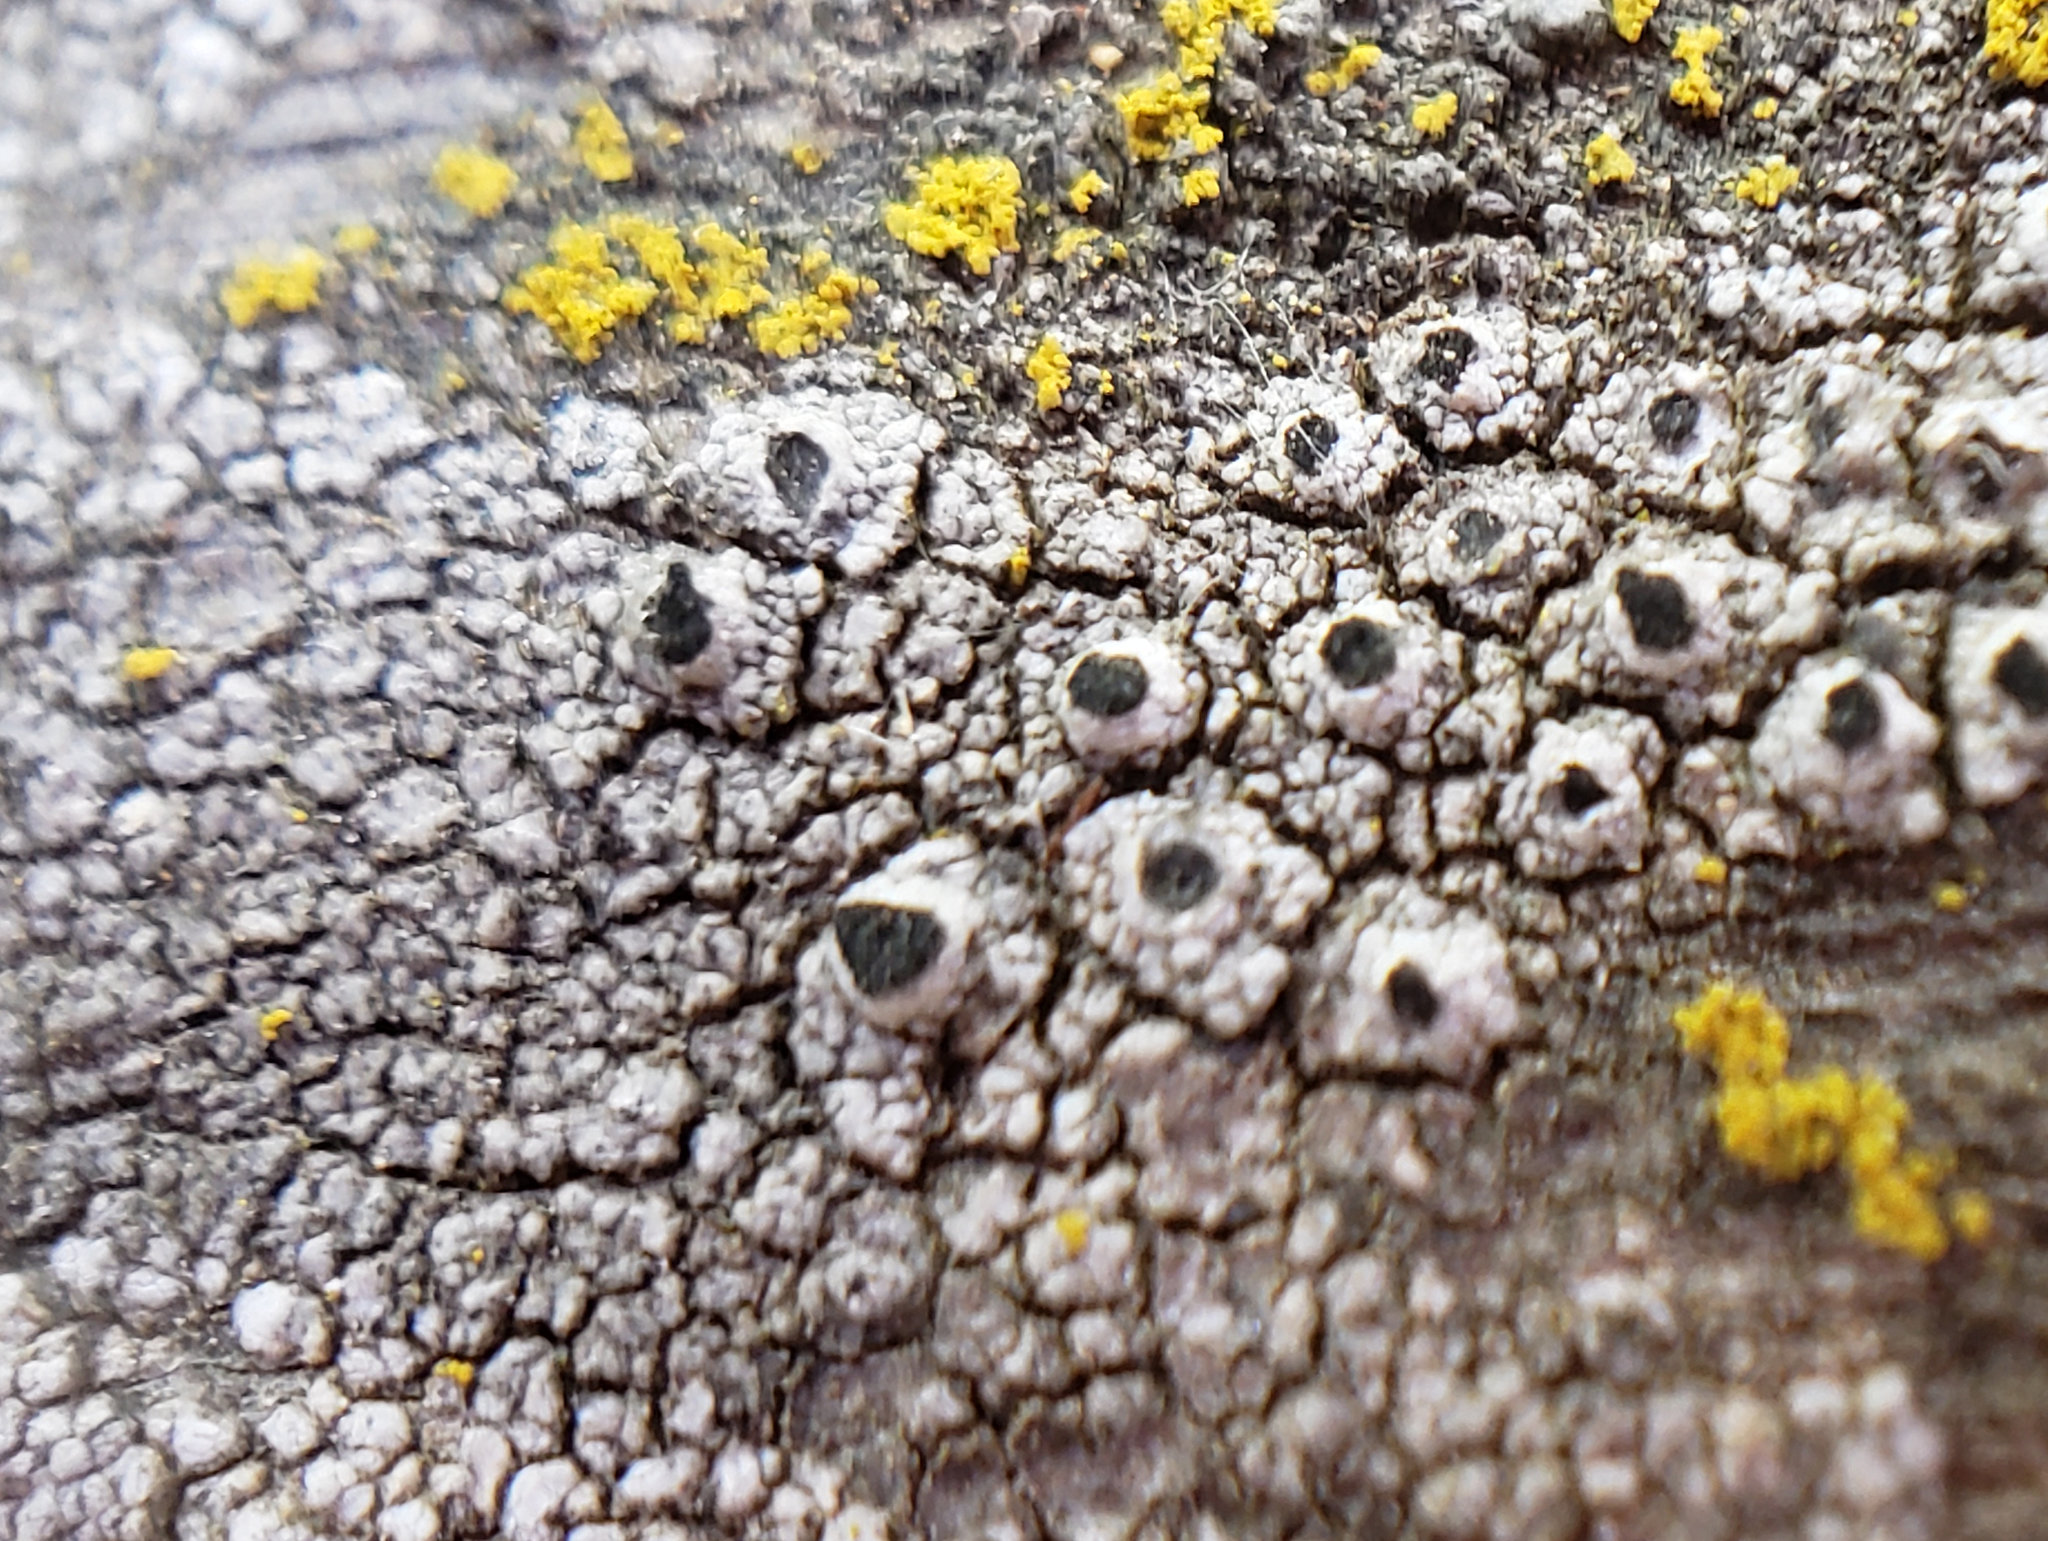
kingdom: Fungi
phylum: Ascomycota
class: Lecanoromycetes
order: Caliciales
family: Caliciaceae
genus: Pseudothelomma
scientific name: Pseudothelomma occidentale
